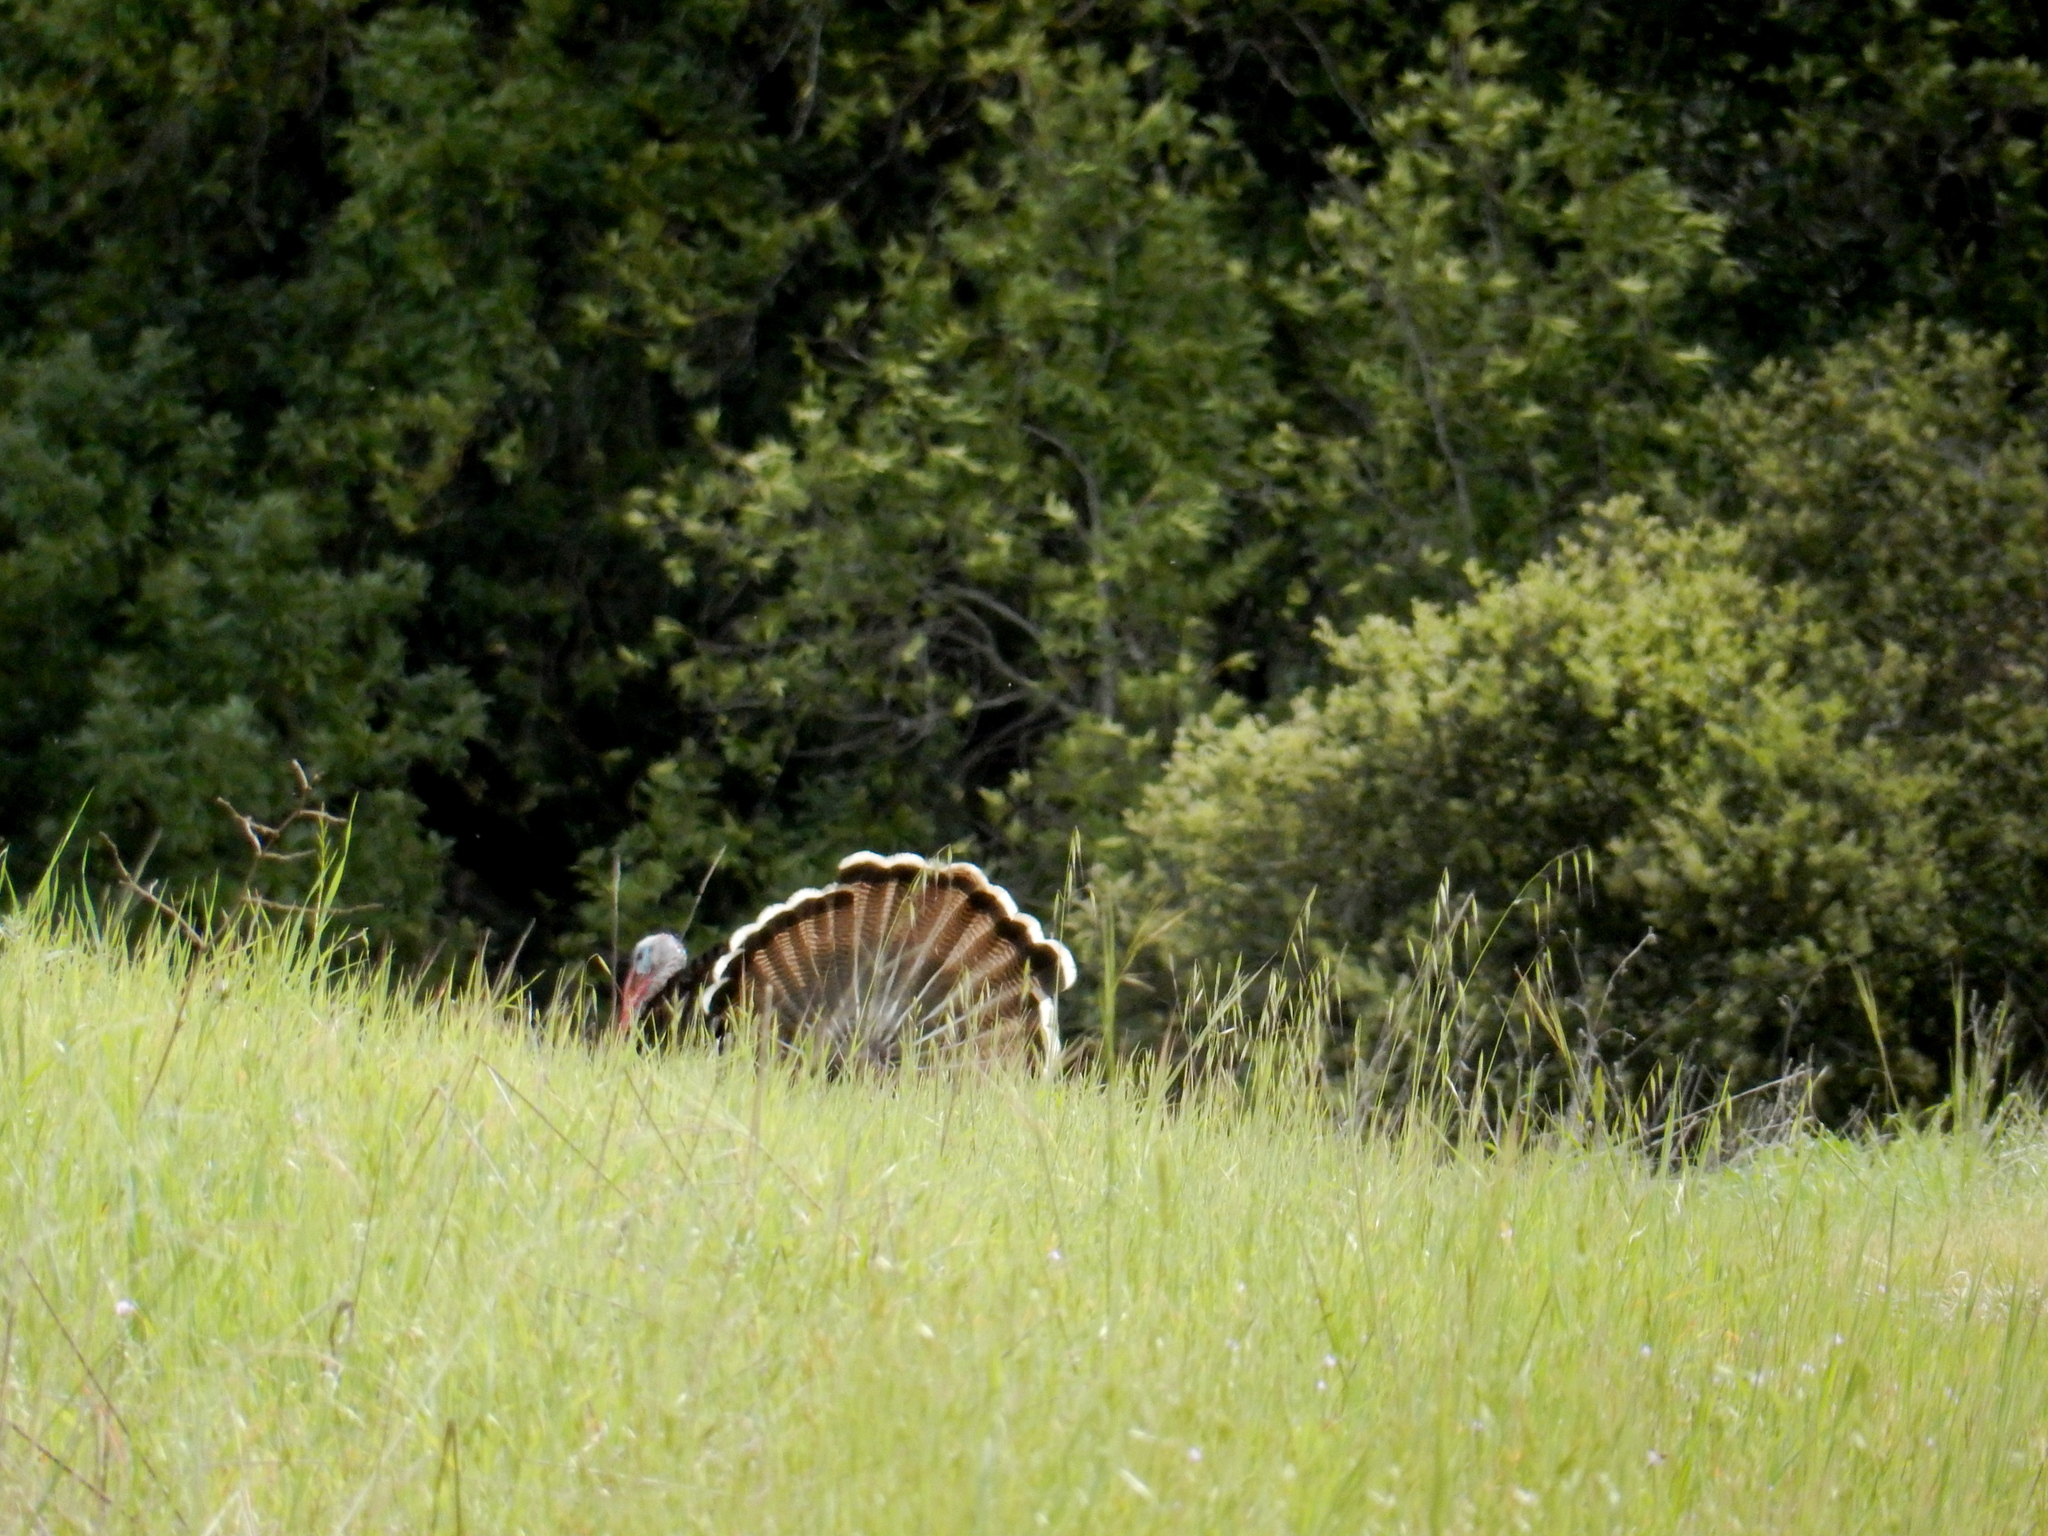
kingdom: Animalia
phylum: Chordata
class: Aves
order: Galliformes
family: Phasianidae
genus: Meleagris
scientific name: Meleagris gallopavo
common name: Wild turkey
